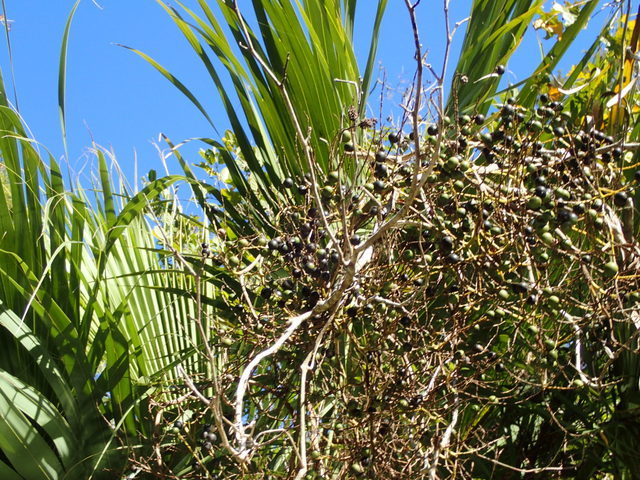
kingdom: Plantae
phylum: Tracheophyta
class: Liliopsida
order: Arecales
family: Arecaceae
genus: Sabal
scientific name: Sabal palmetto
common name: Blue palmetto
